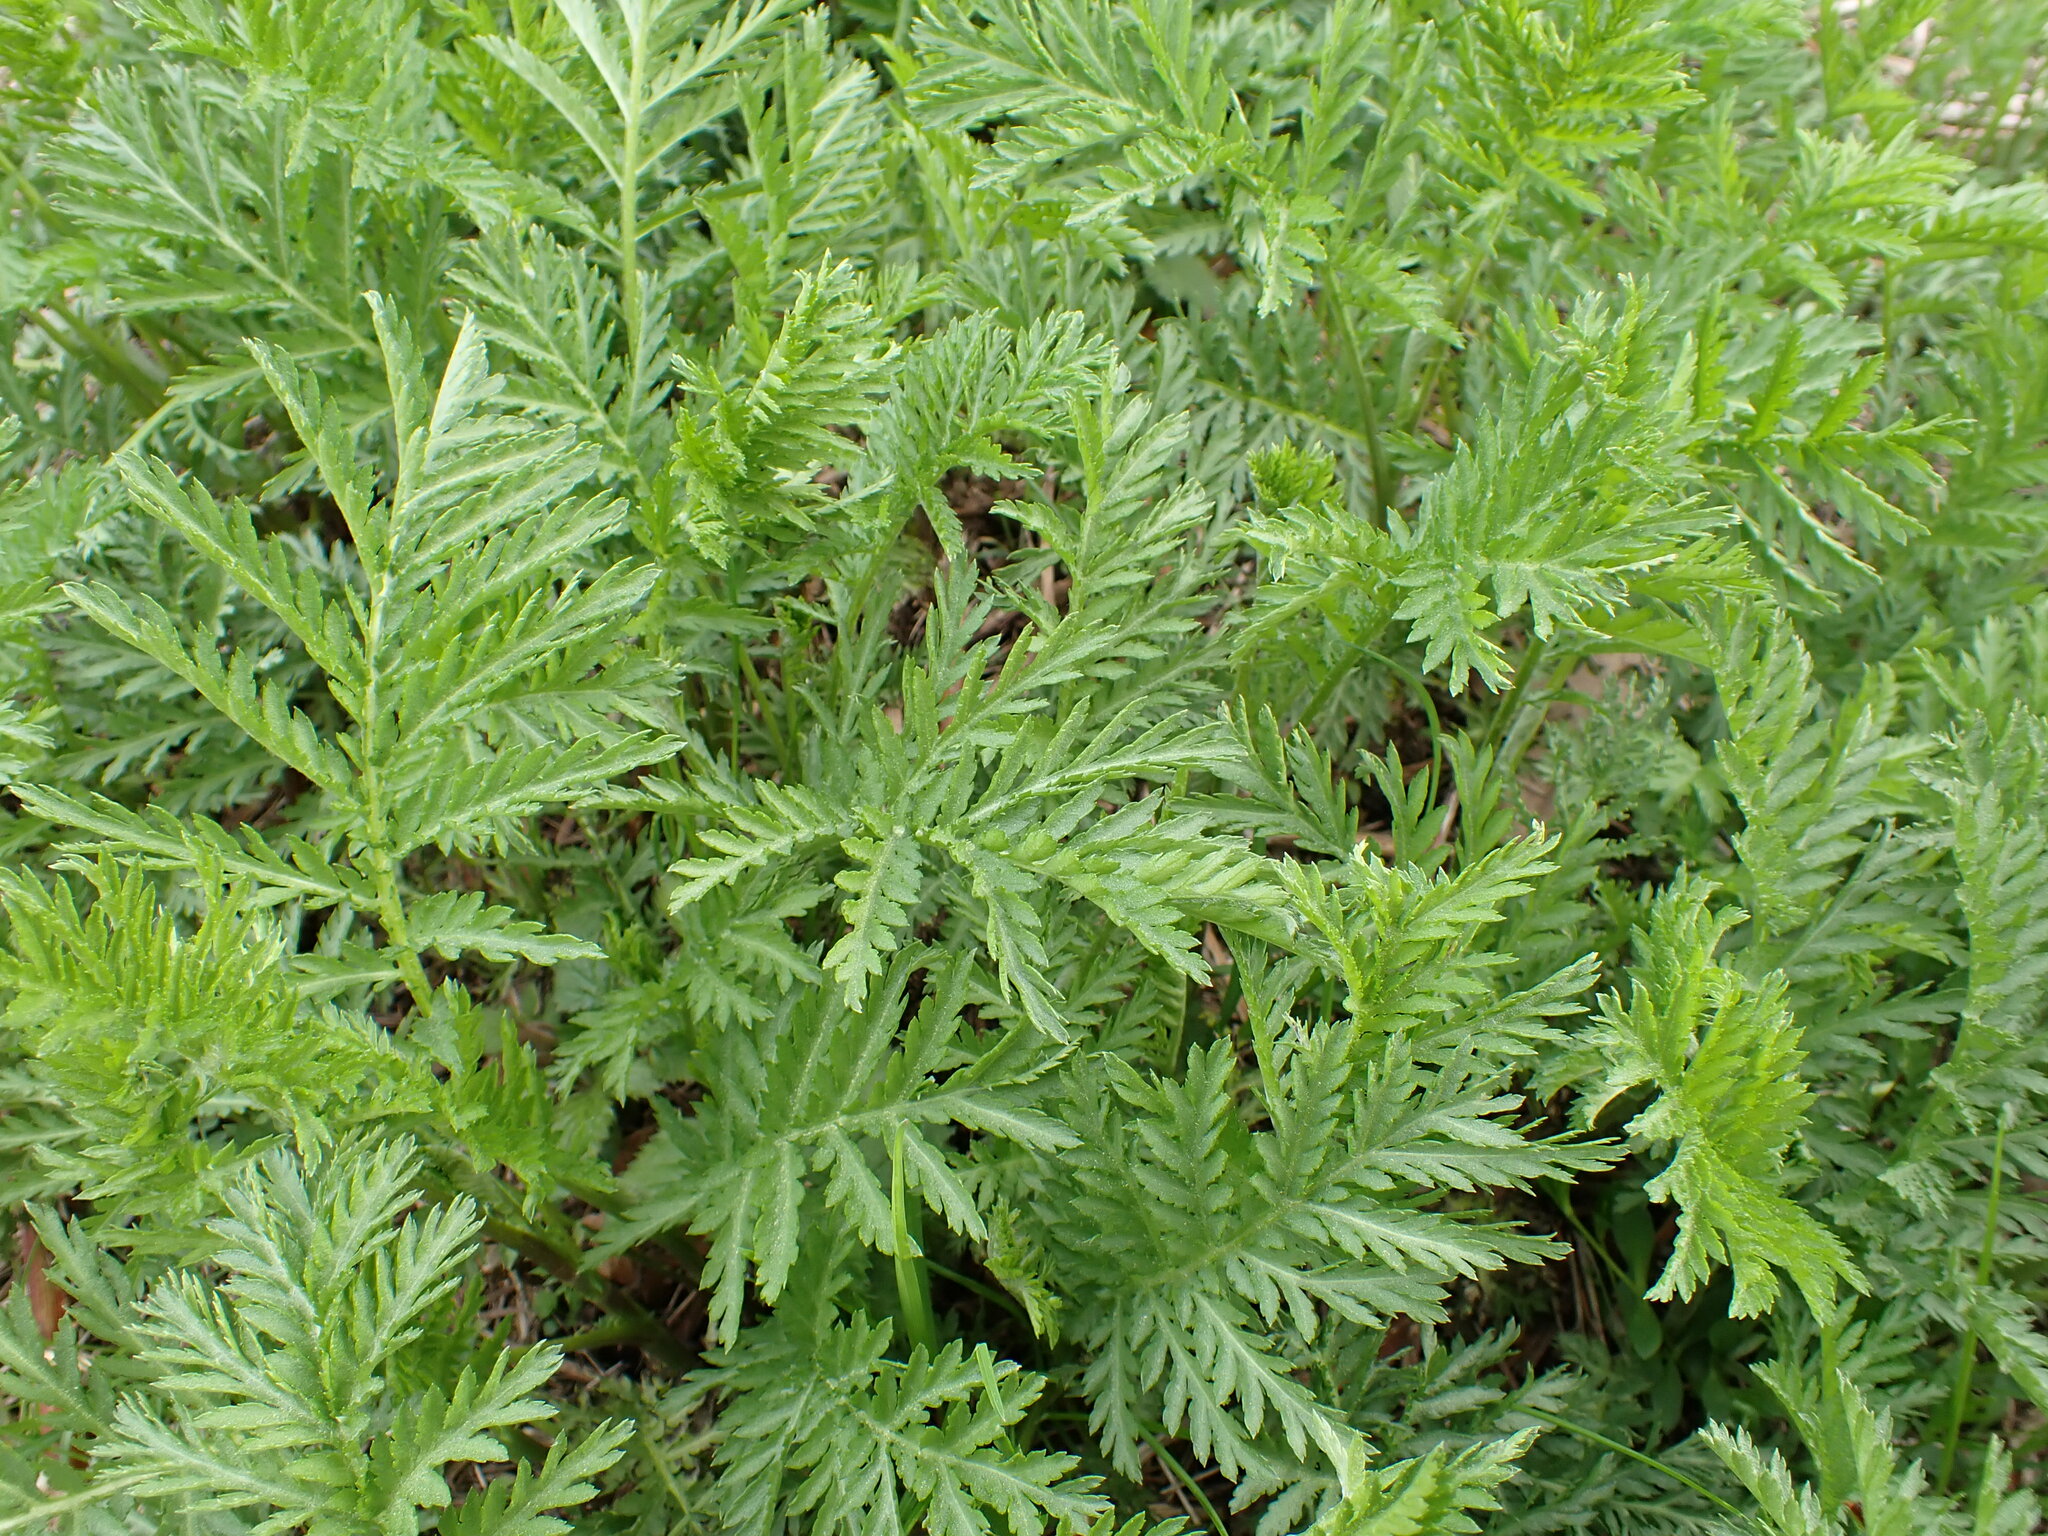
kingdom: Plantae
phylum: Tracheophyta
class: Magnoliopsida
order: Asterales
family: Asteraceae
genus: Tanacetum
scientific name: Tanacetum vulgare
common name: Common tansy
